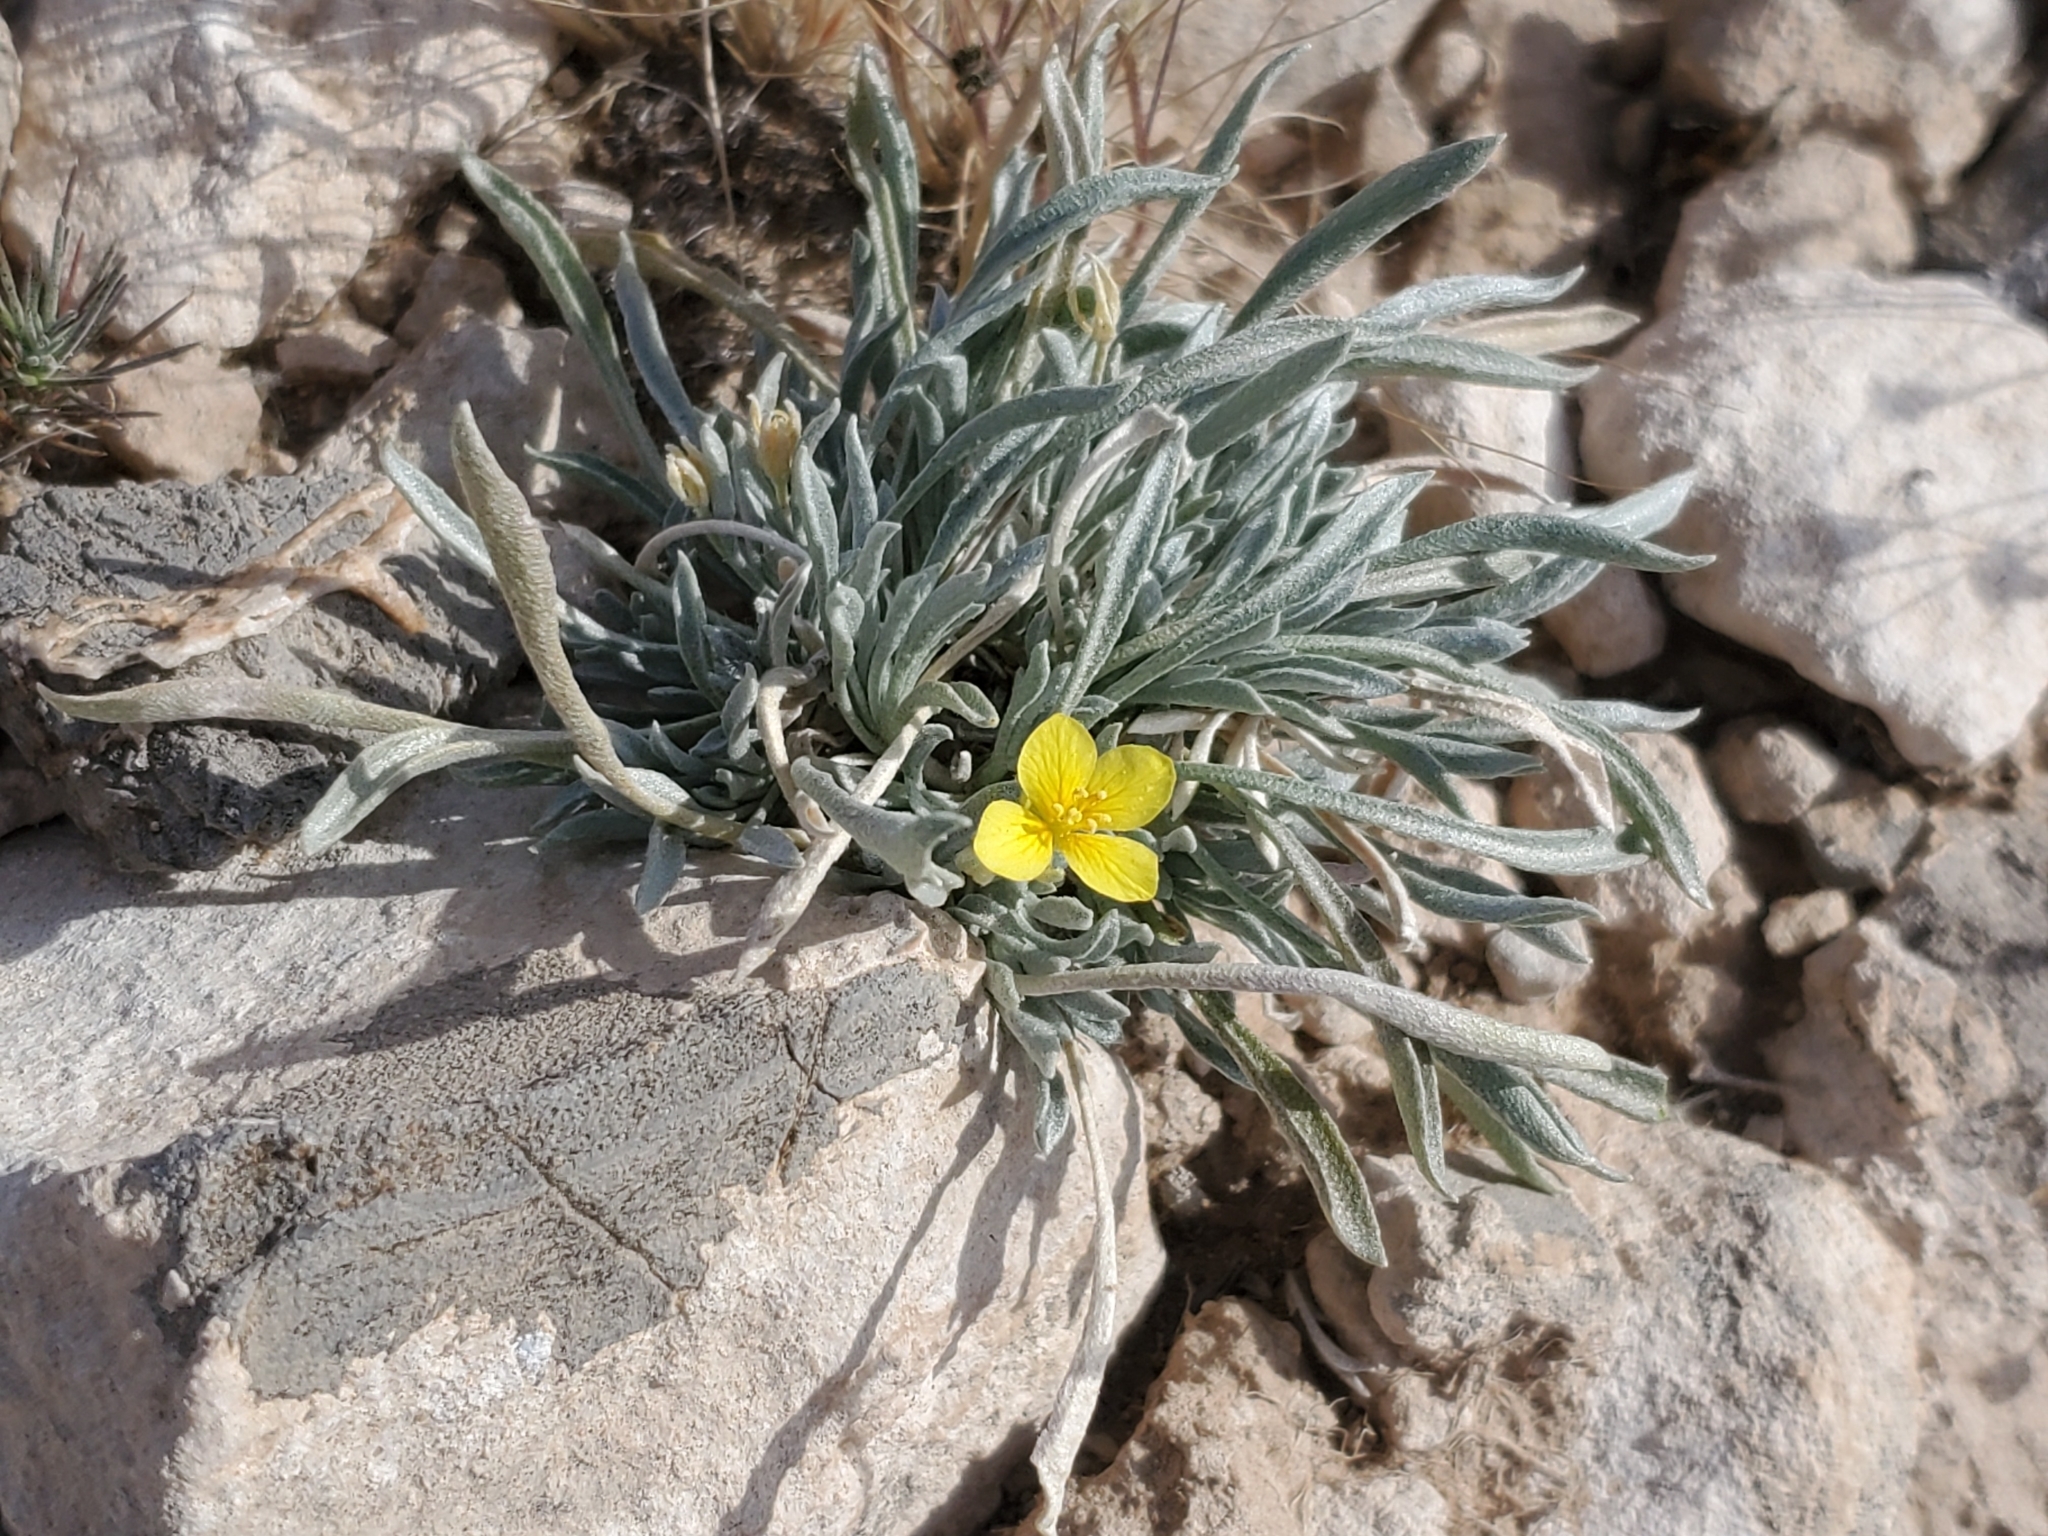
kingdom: Plantae
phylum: Tracheophyta
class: Magnoliopsida
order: Brassicales
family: Brassicaceae
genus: Physaria
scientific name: Physaria fendleri
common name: Fendler's bladderpod
